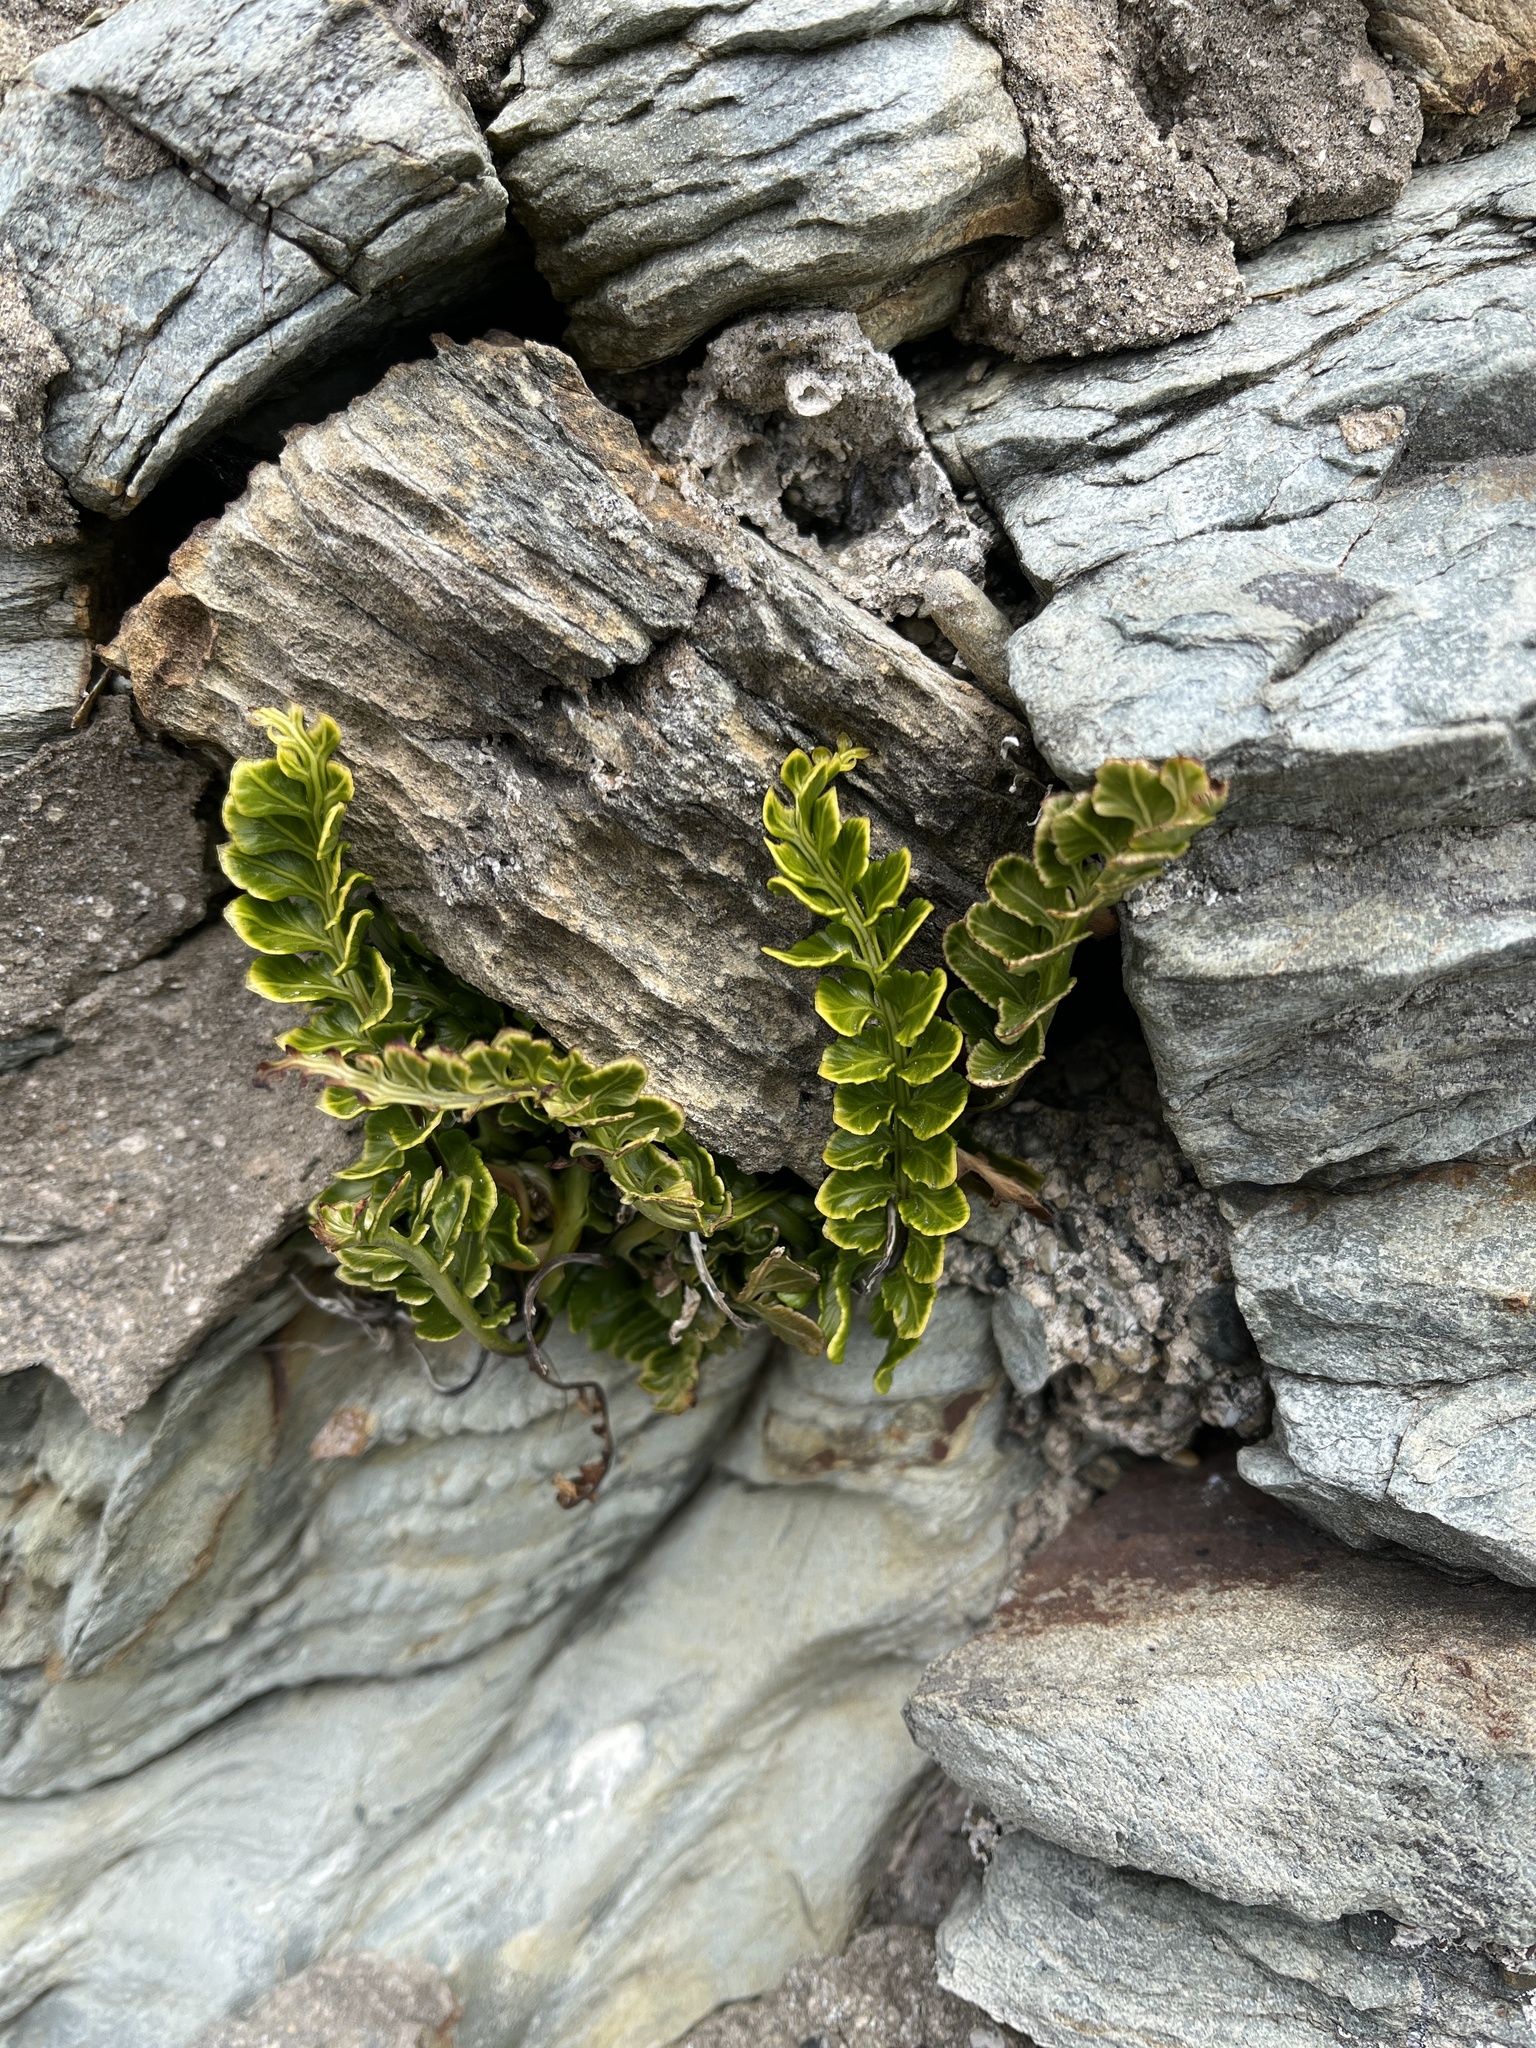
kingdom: Plantae
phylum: Tracheophyta
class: Polypodiopsida
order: Polypodiales
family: Aspleniaceae
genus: Asplenium
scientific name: Asplenium marinum
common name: Sea spleenwort
